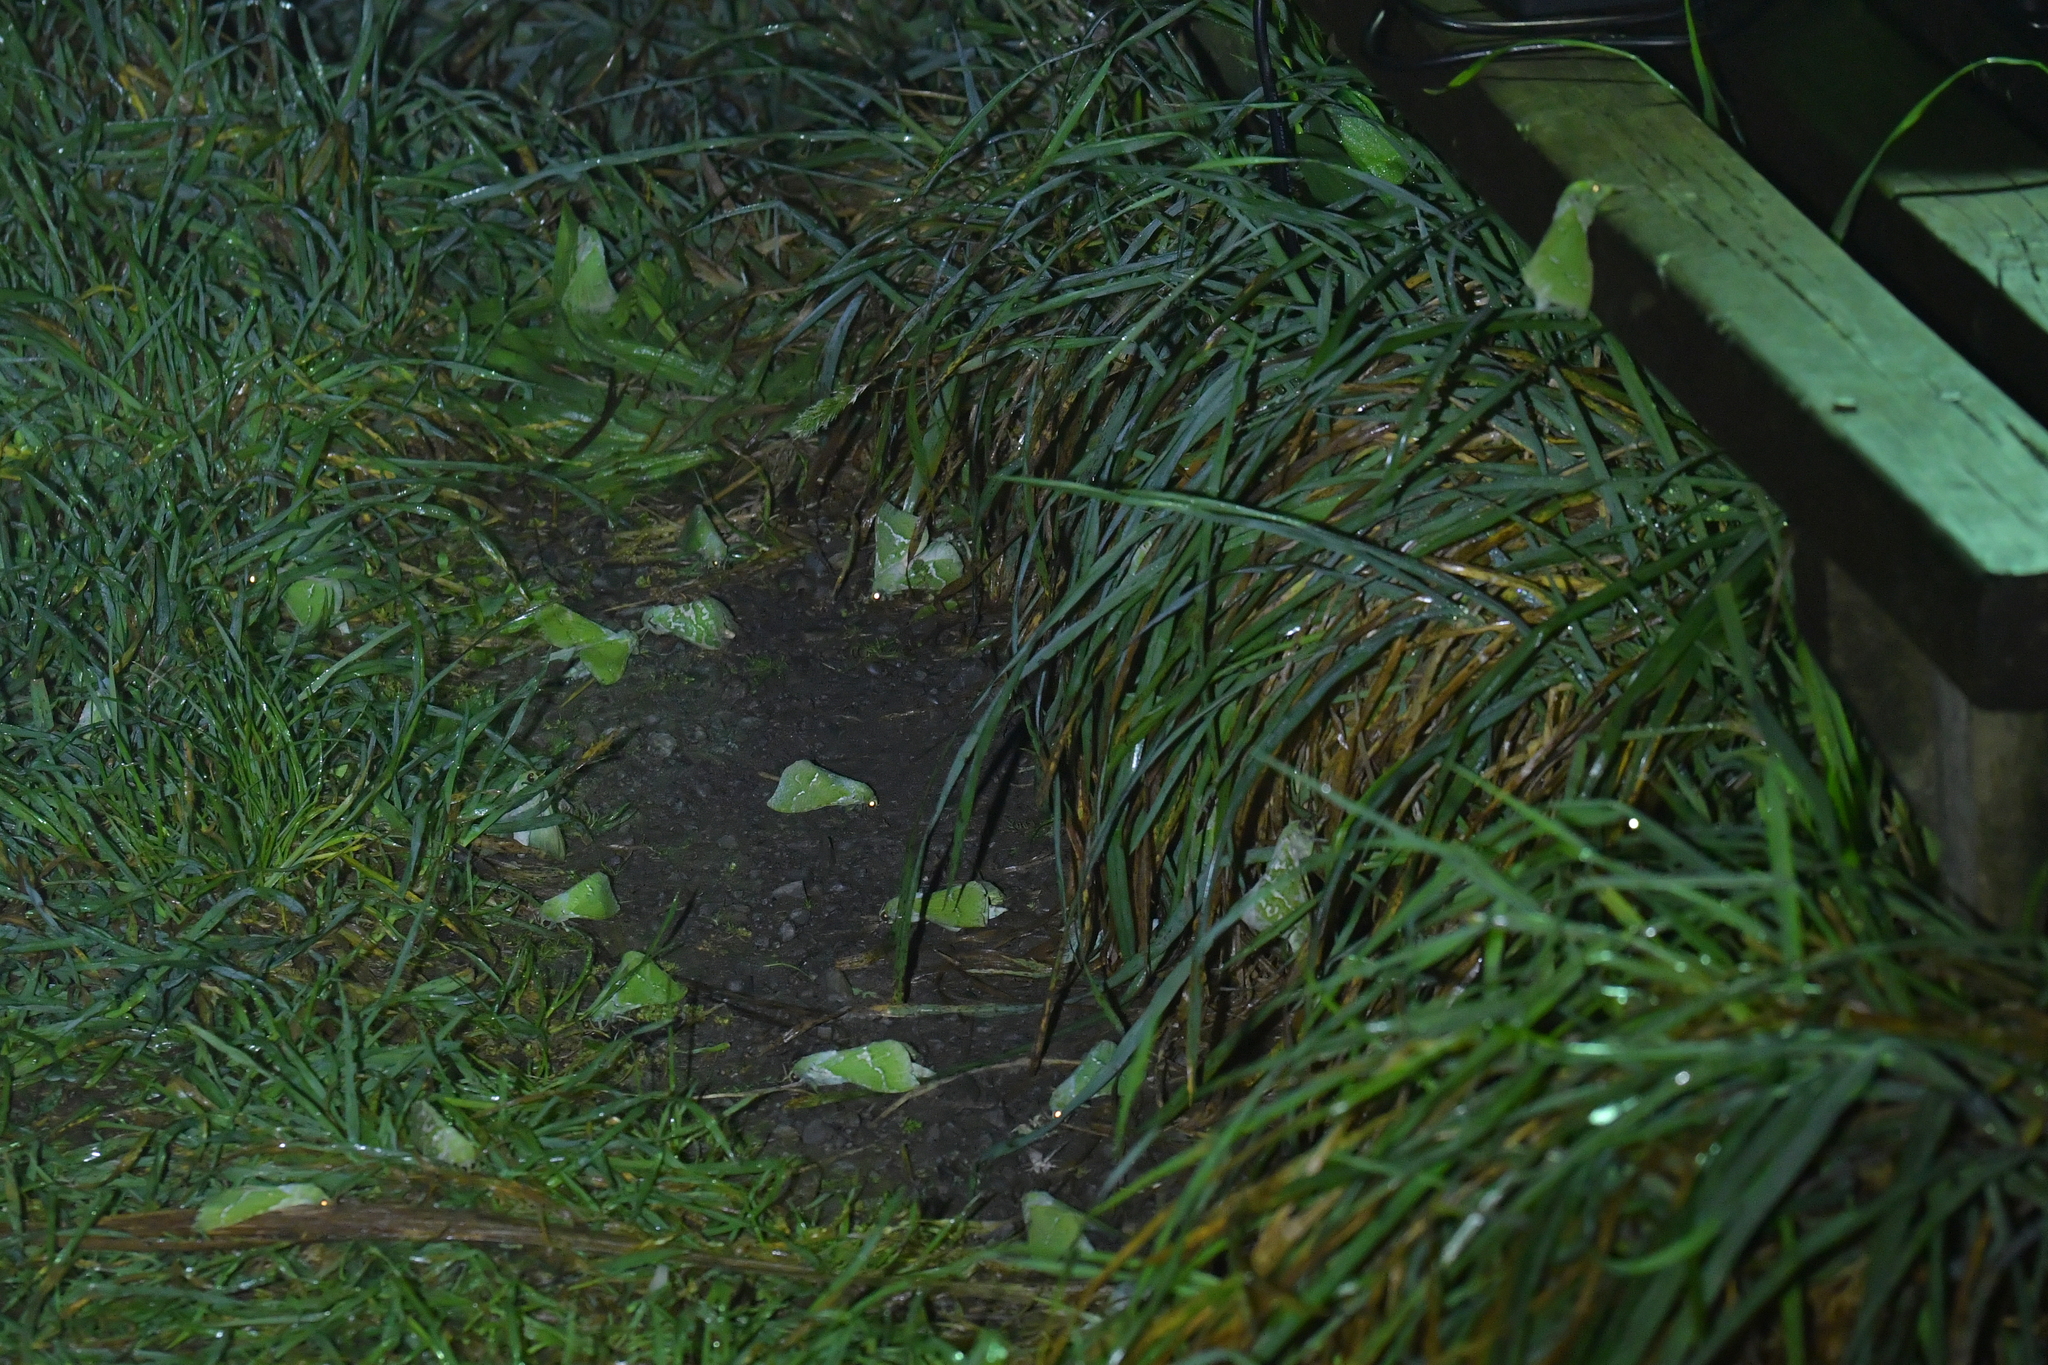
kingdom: Animalia
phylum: Arthropoda
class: Insecta
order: Lepidoptera
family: Hepialidae
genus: Aenetus
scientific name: Aenetus virescens
